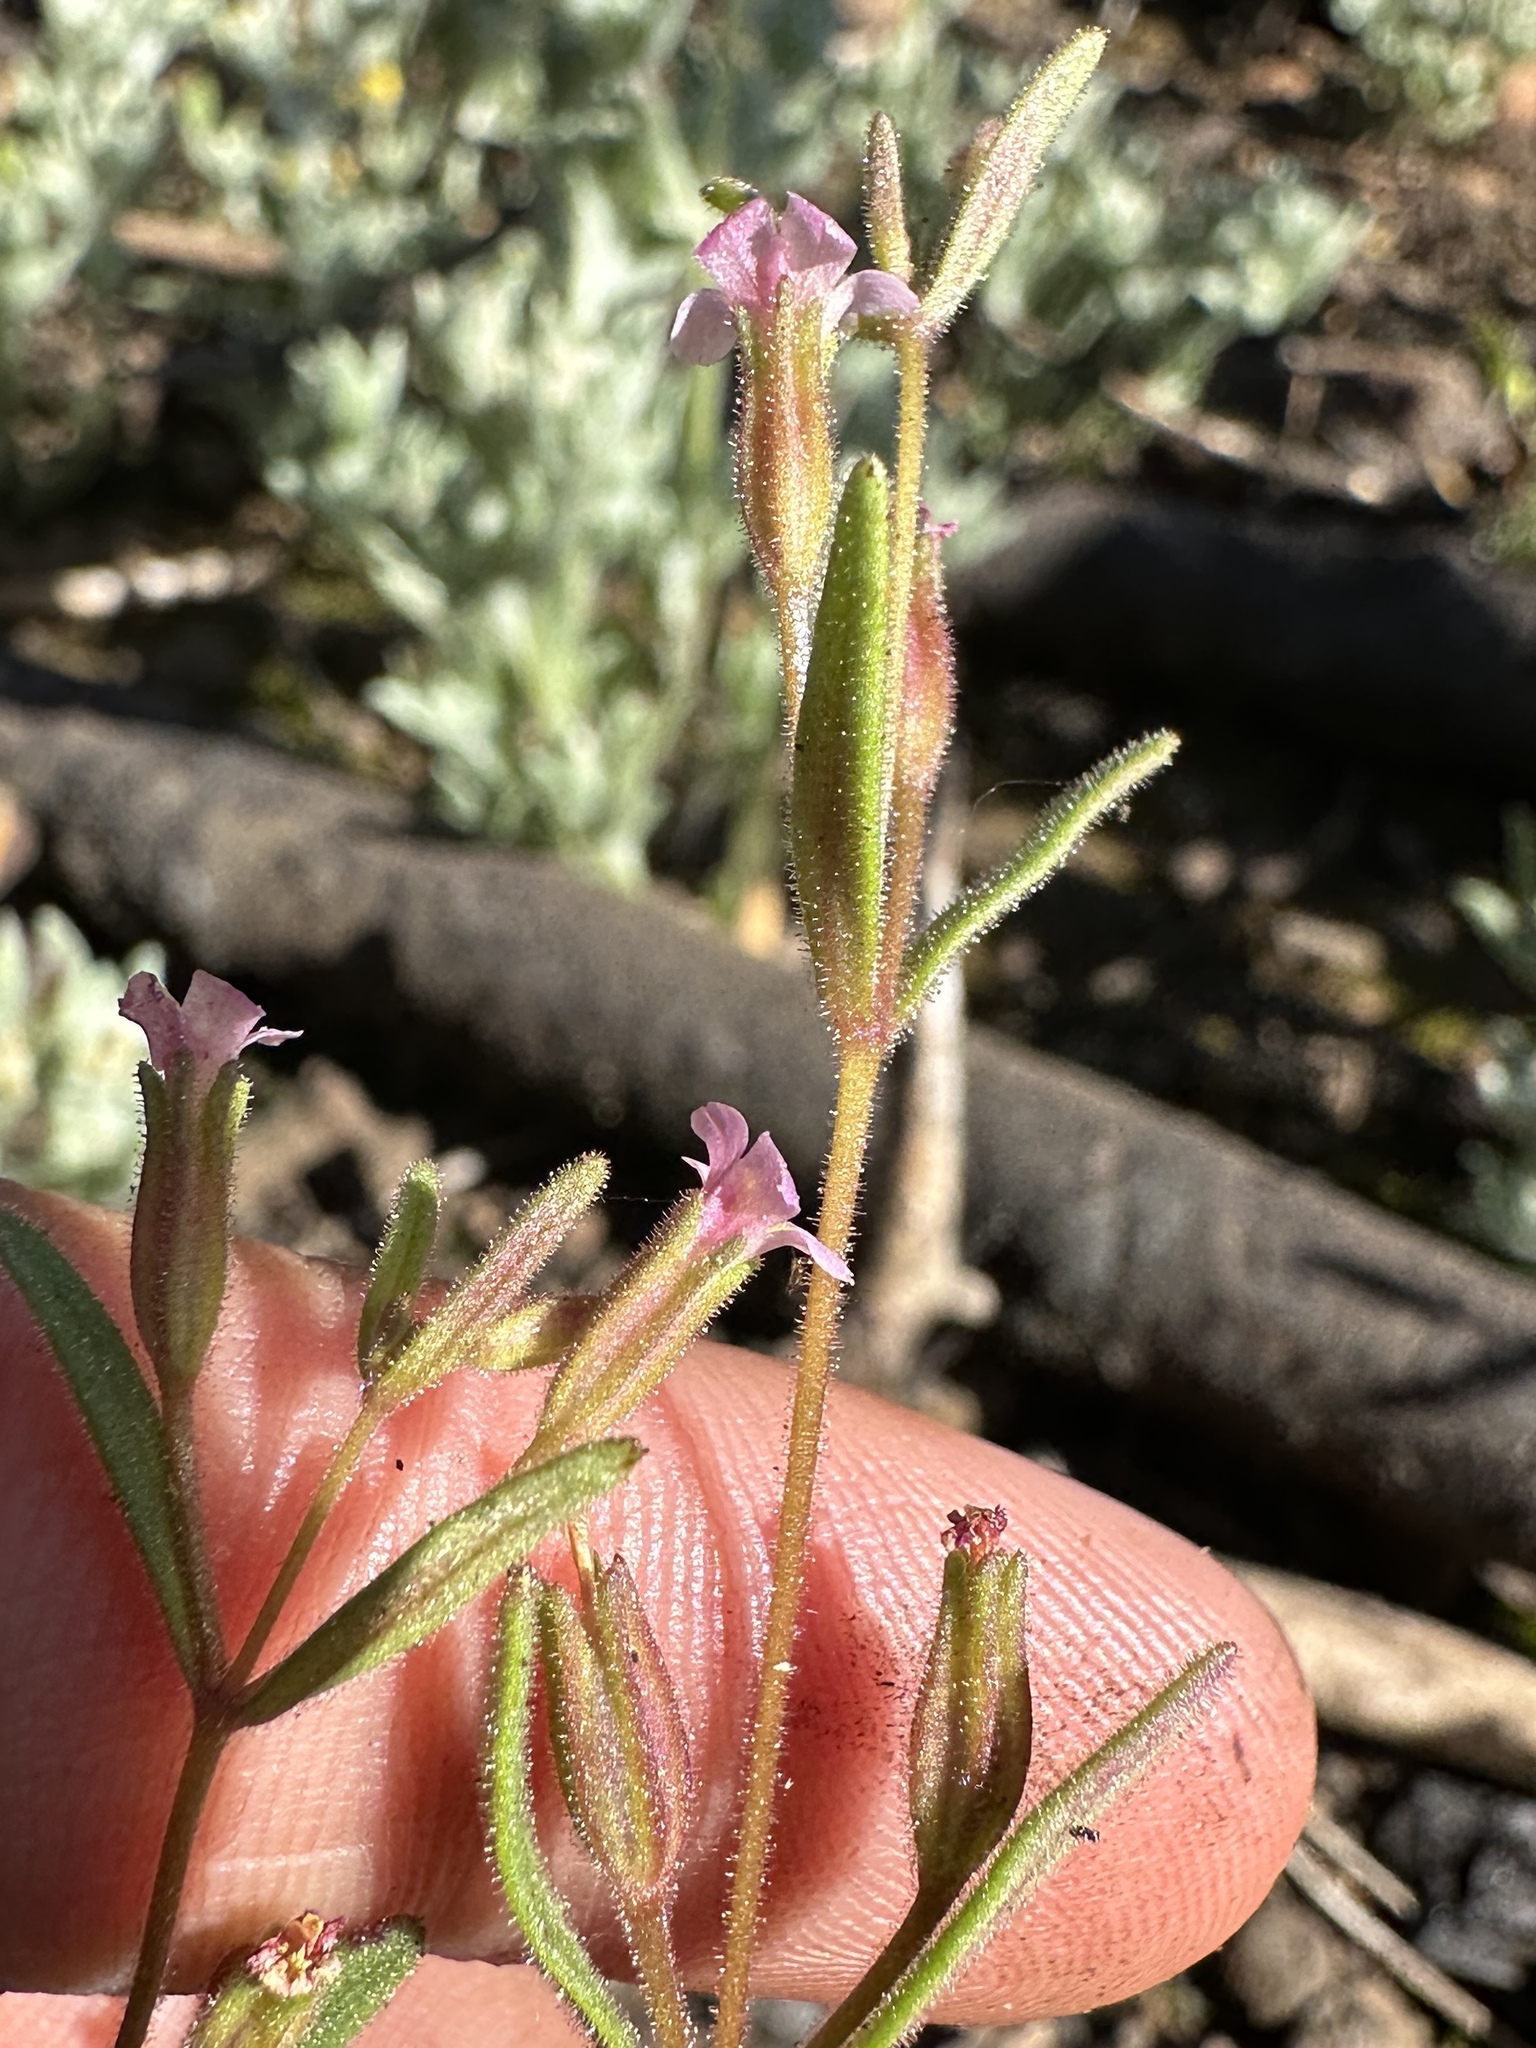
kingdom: Plantae
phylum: Tracheophyta
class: Magnoliopsida
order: Lamiales
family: Phrymaceae
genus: Erythranthe
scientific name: Erythranthe breweri
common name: Brewer's monkeyflower
